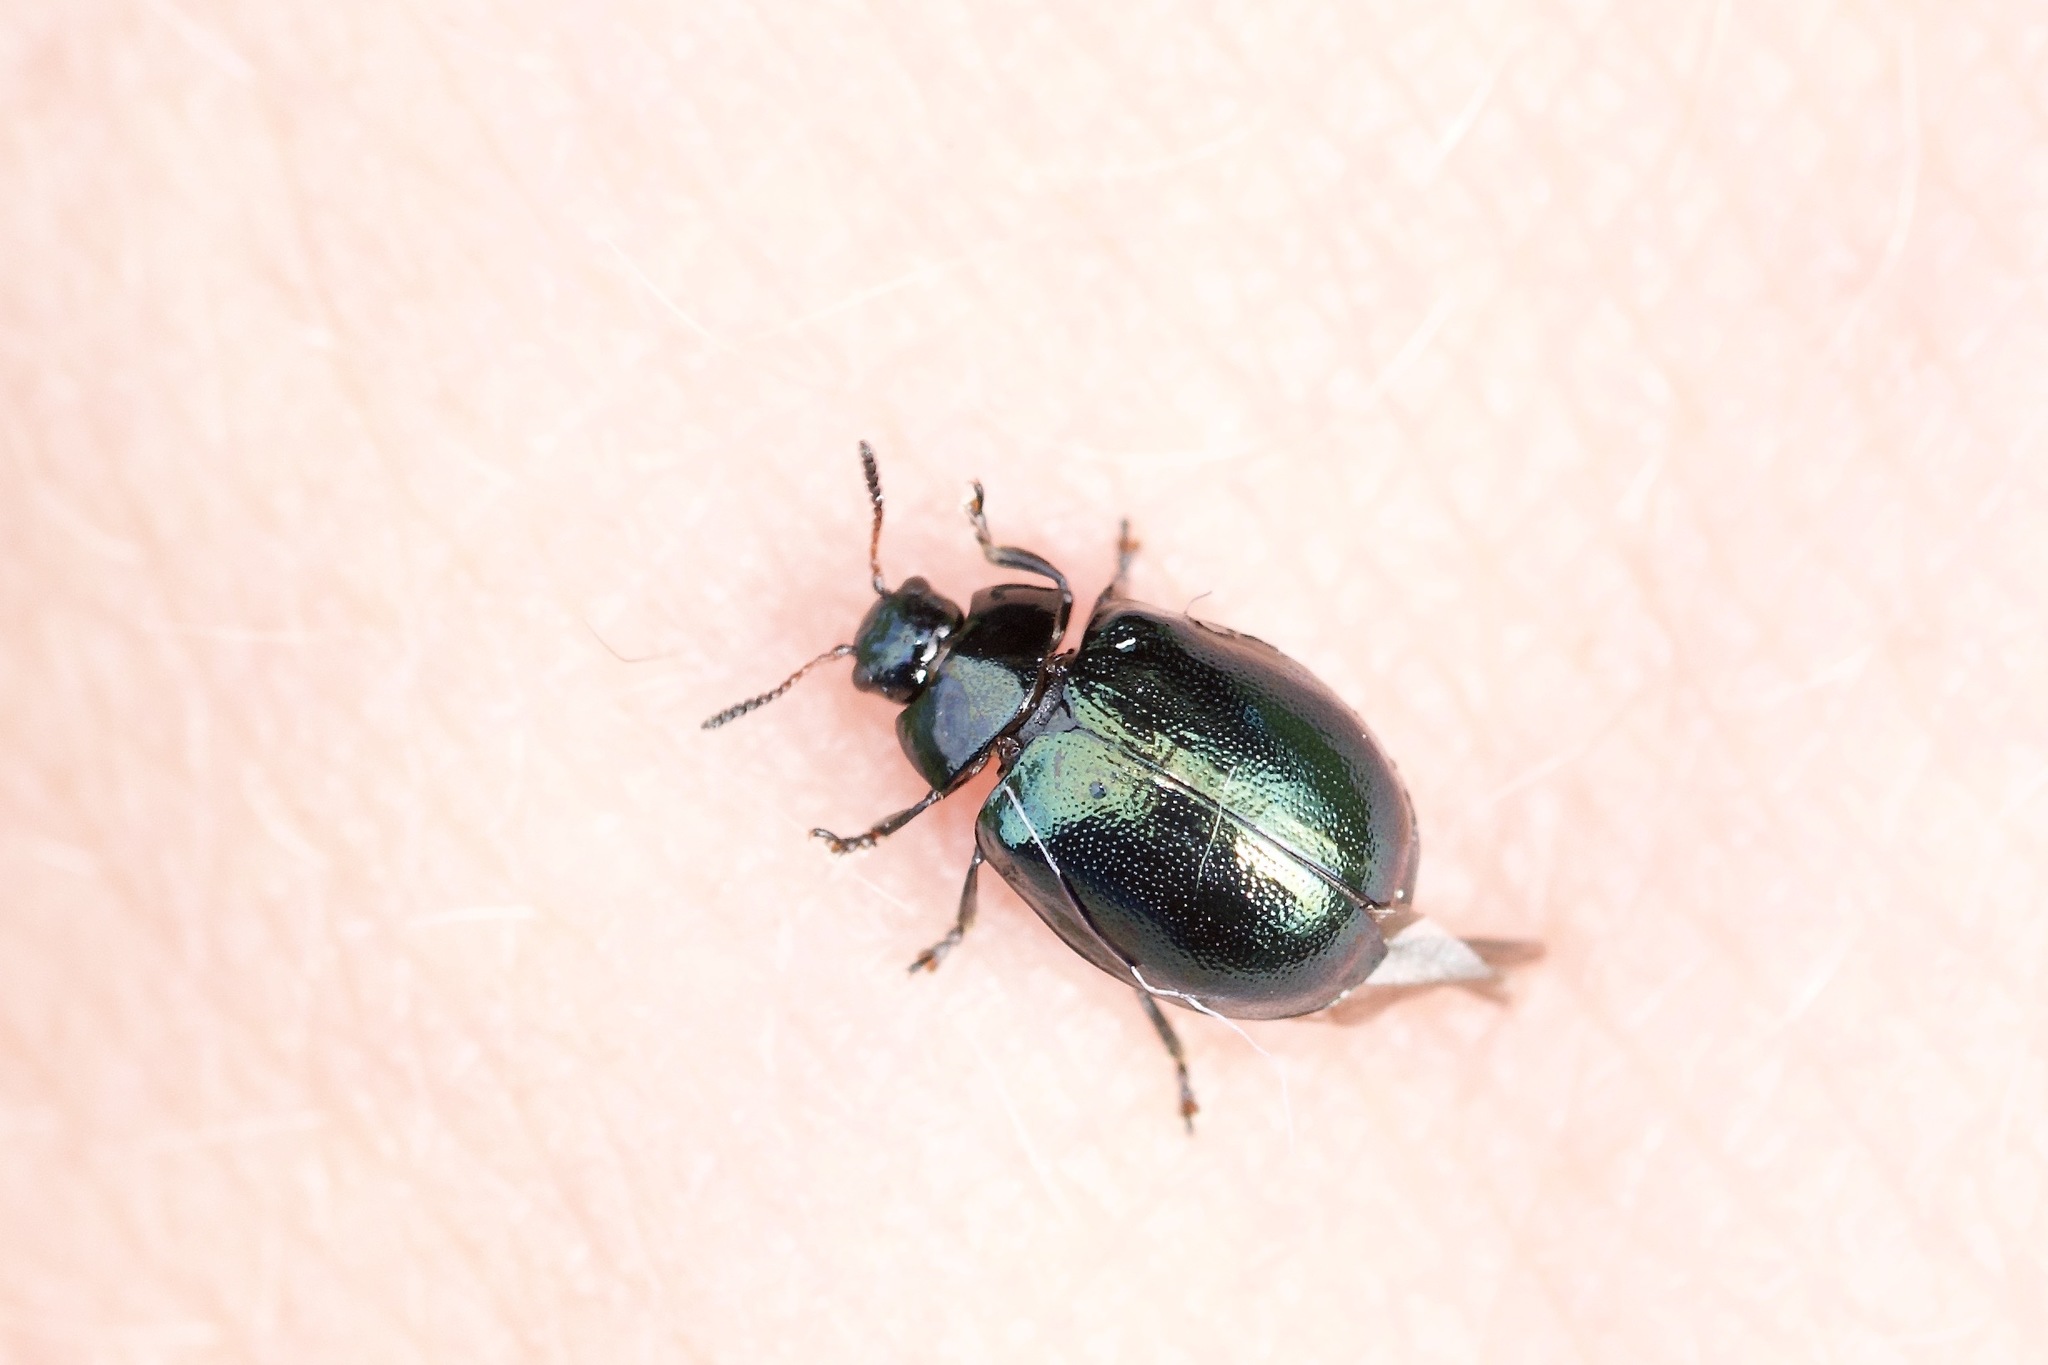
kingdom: Animalia
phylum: Arthropoda
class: Insecta
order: Coleoptera
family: Chrysomelidae
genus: Plagiodera
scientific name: Plagiodera versicolora
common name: Imported willow leaf beetle
